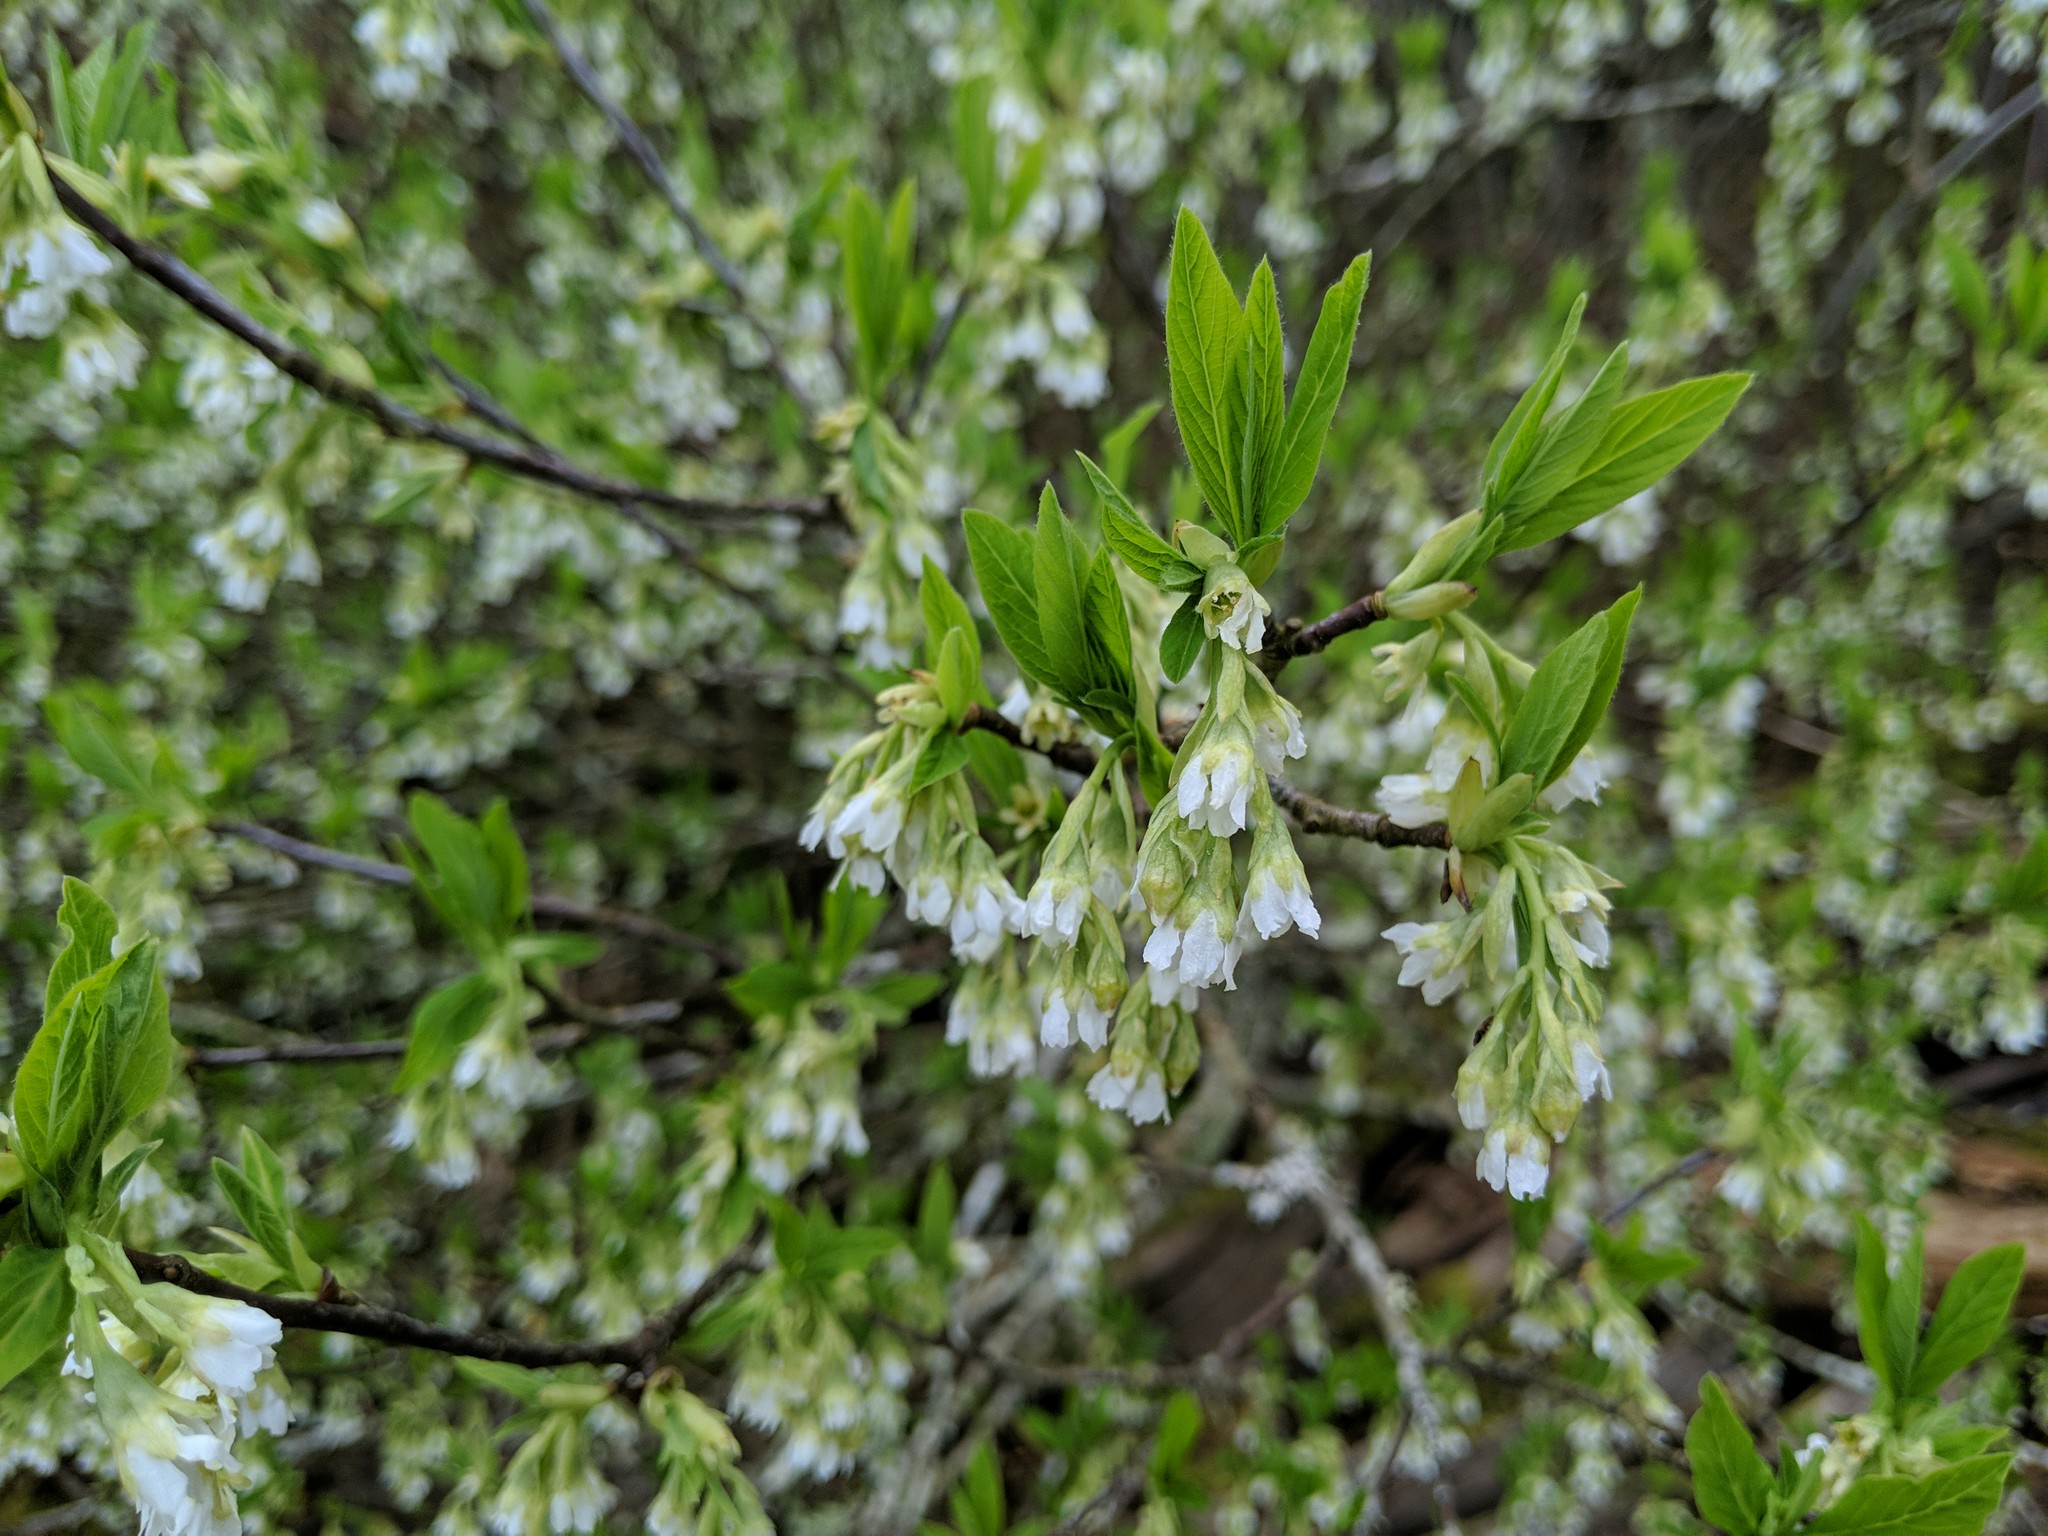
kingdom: Plantae
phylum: Tracheophyta
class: Magnoliopsida
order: Rosales
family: Rosaceae
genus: Oemleria
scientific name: Oemleria cerasiformis
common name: Osoberry
